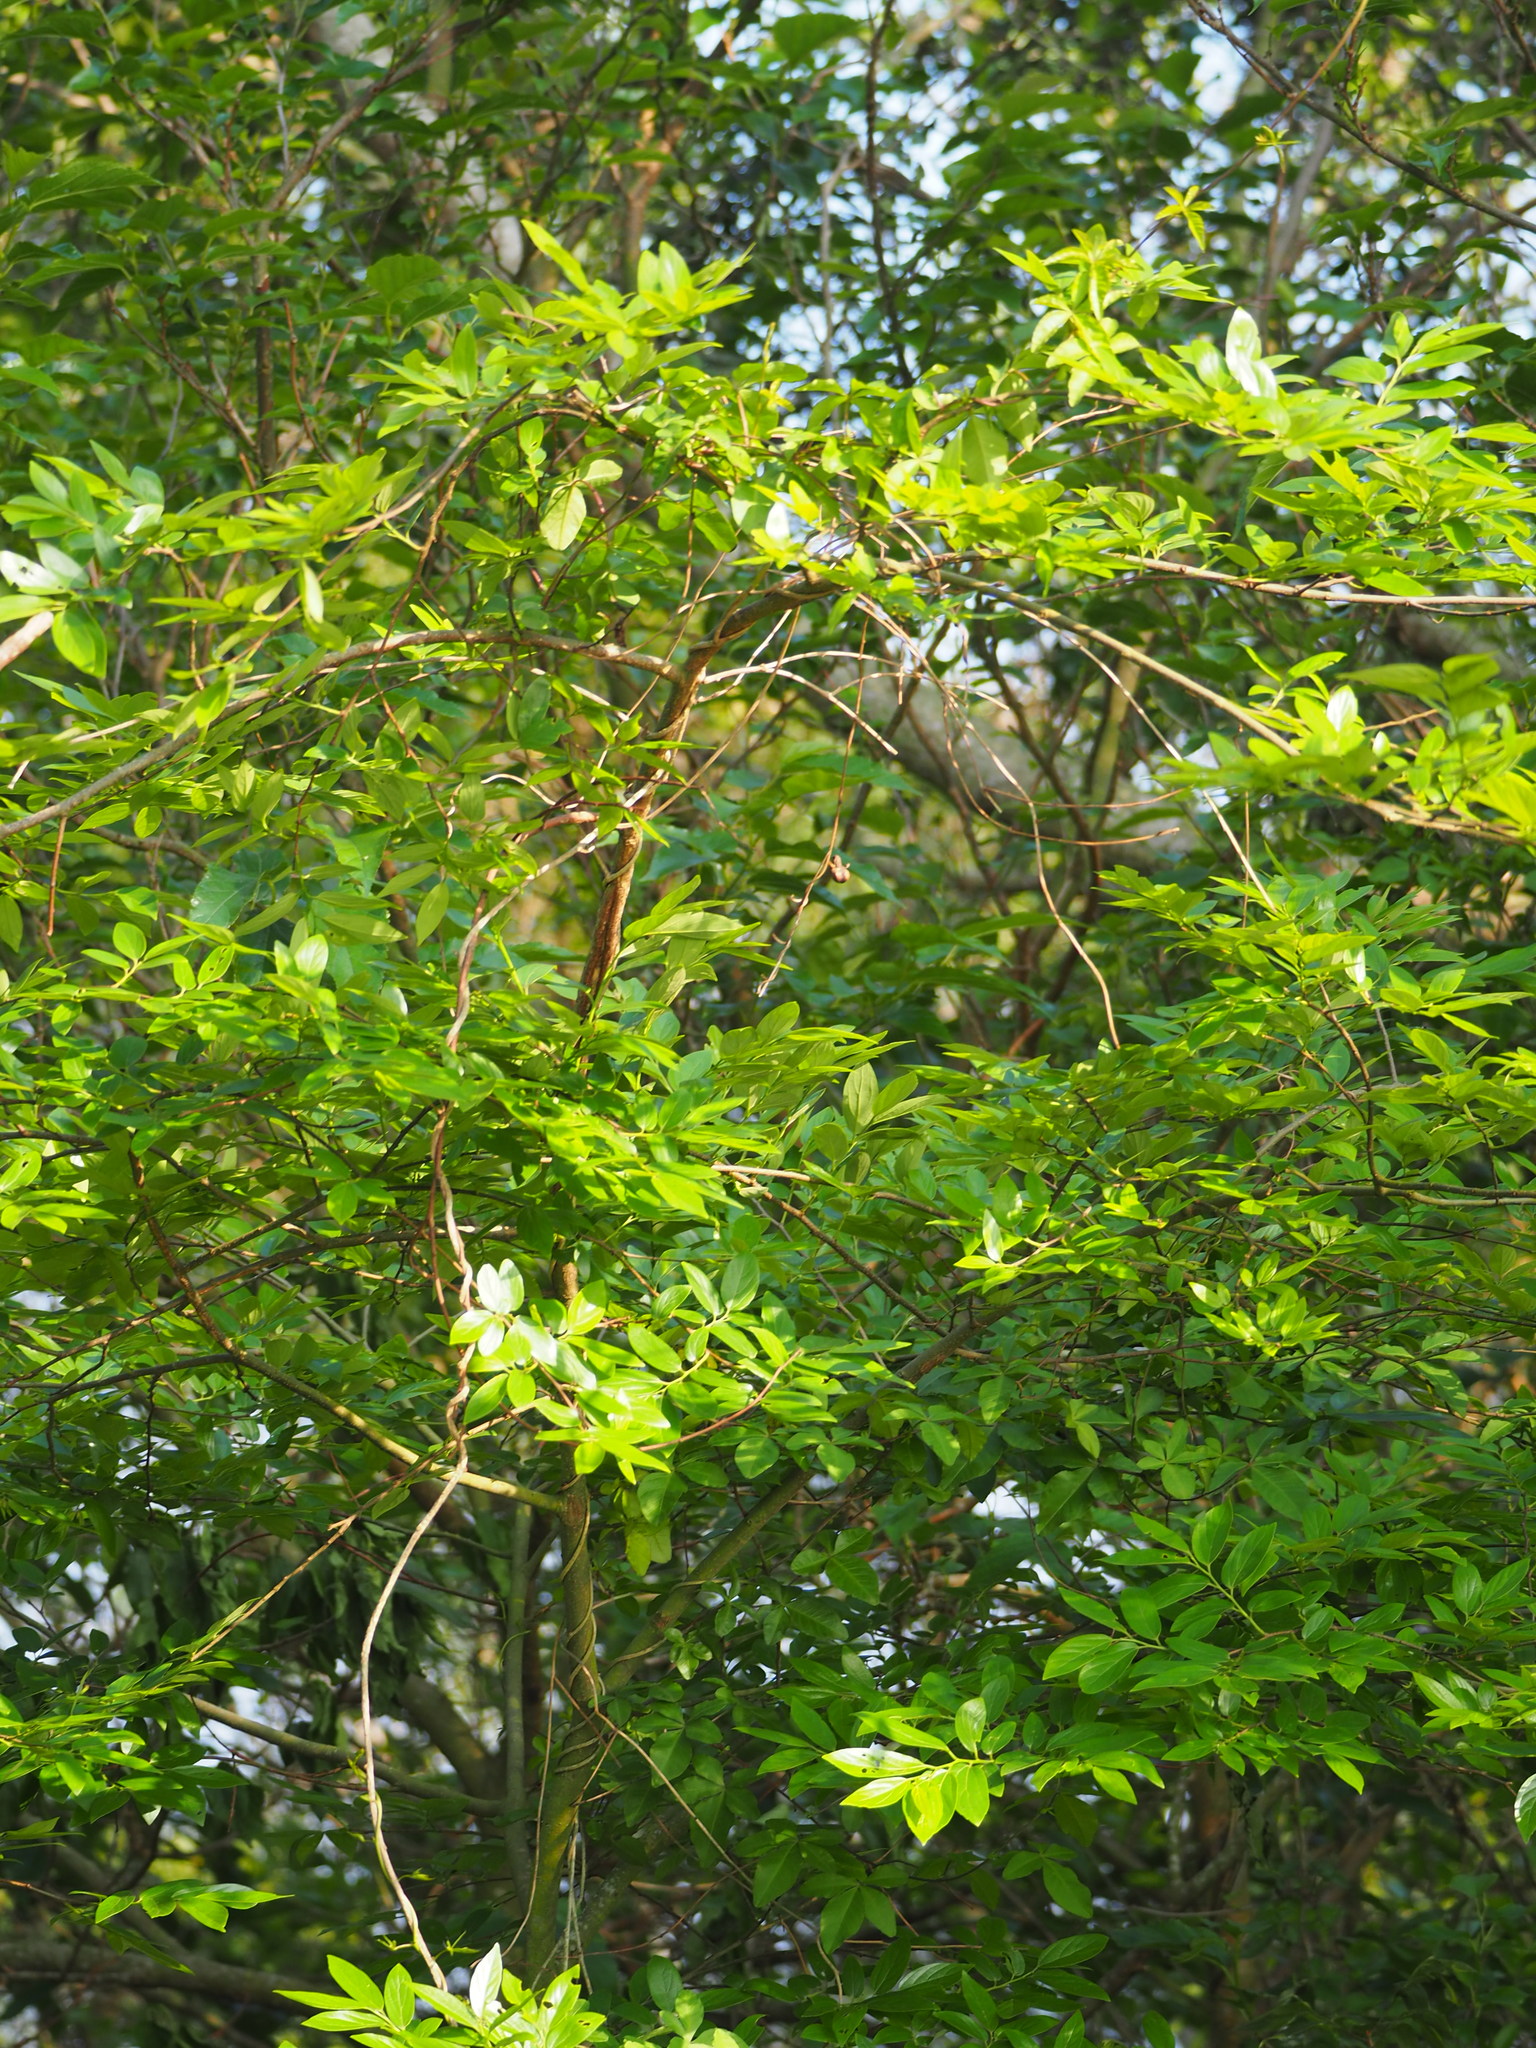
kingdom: Plantae
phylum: Tracheophyta
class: Magnoliopsida
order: Rosales
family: Cannabaceae
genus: Celtis
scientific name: Celtis sinensis
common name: Chinese hackberry
